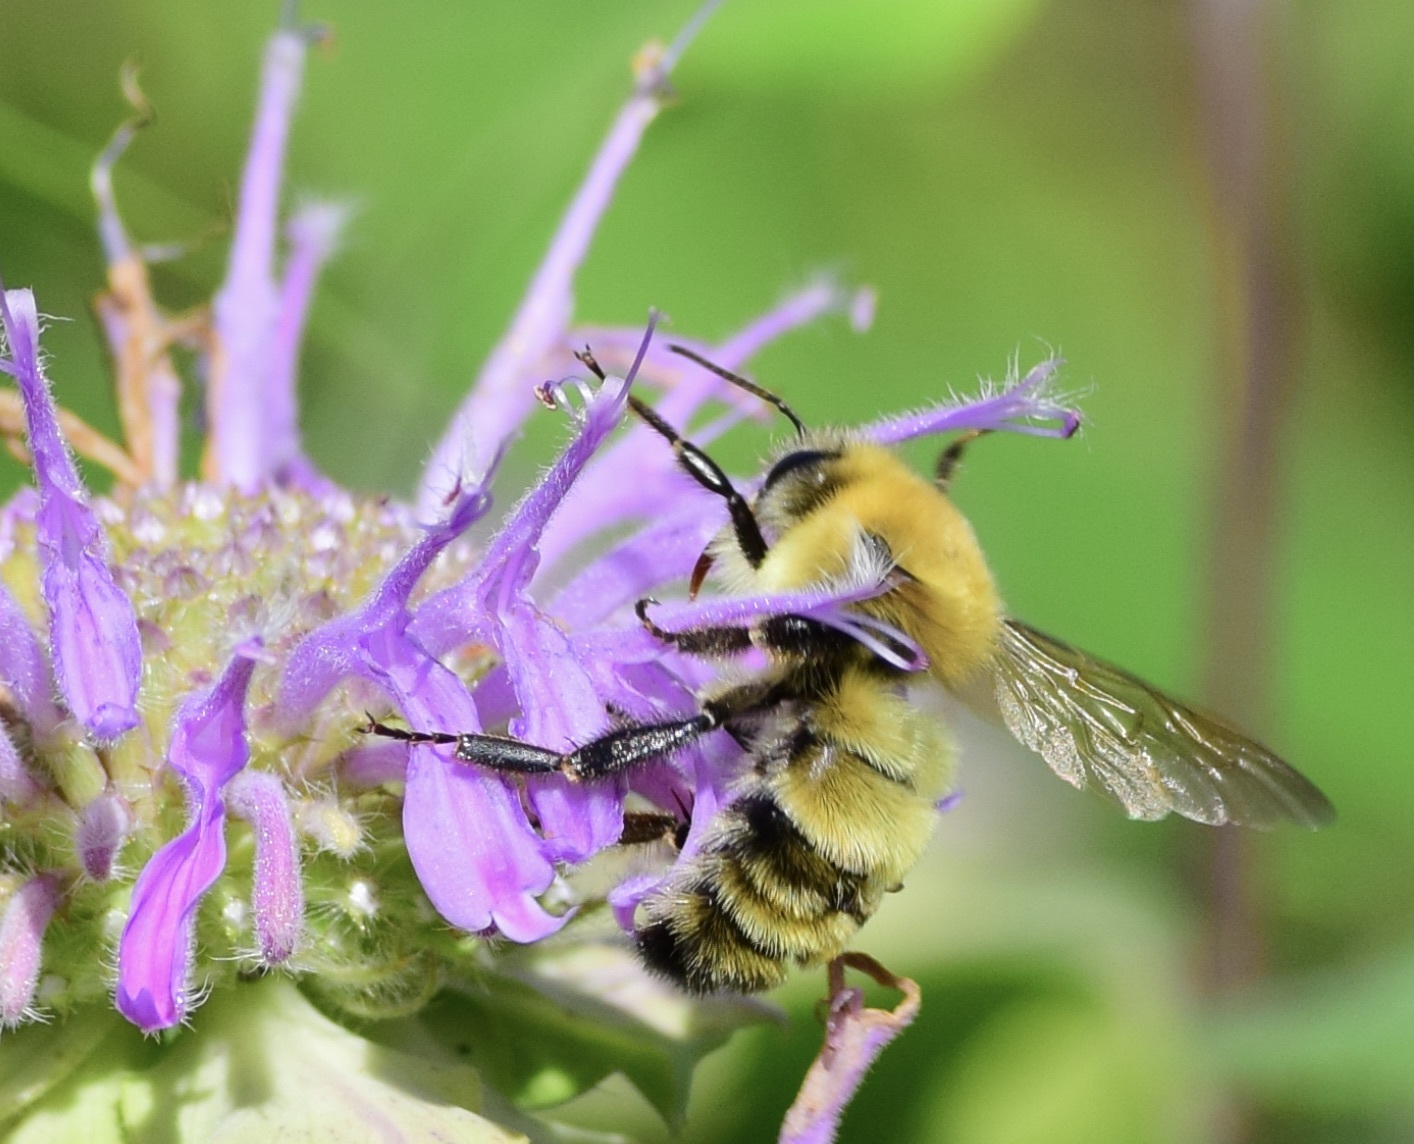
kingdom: Animalia
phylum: Arthropoda
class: Insecta
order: Hymenoptera
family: Apidae
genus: Bombus
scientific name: Bombus bimaculatus
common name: Two-spotted bumble bee
